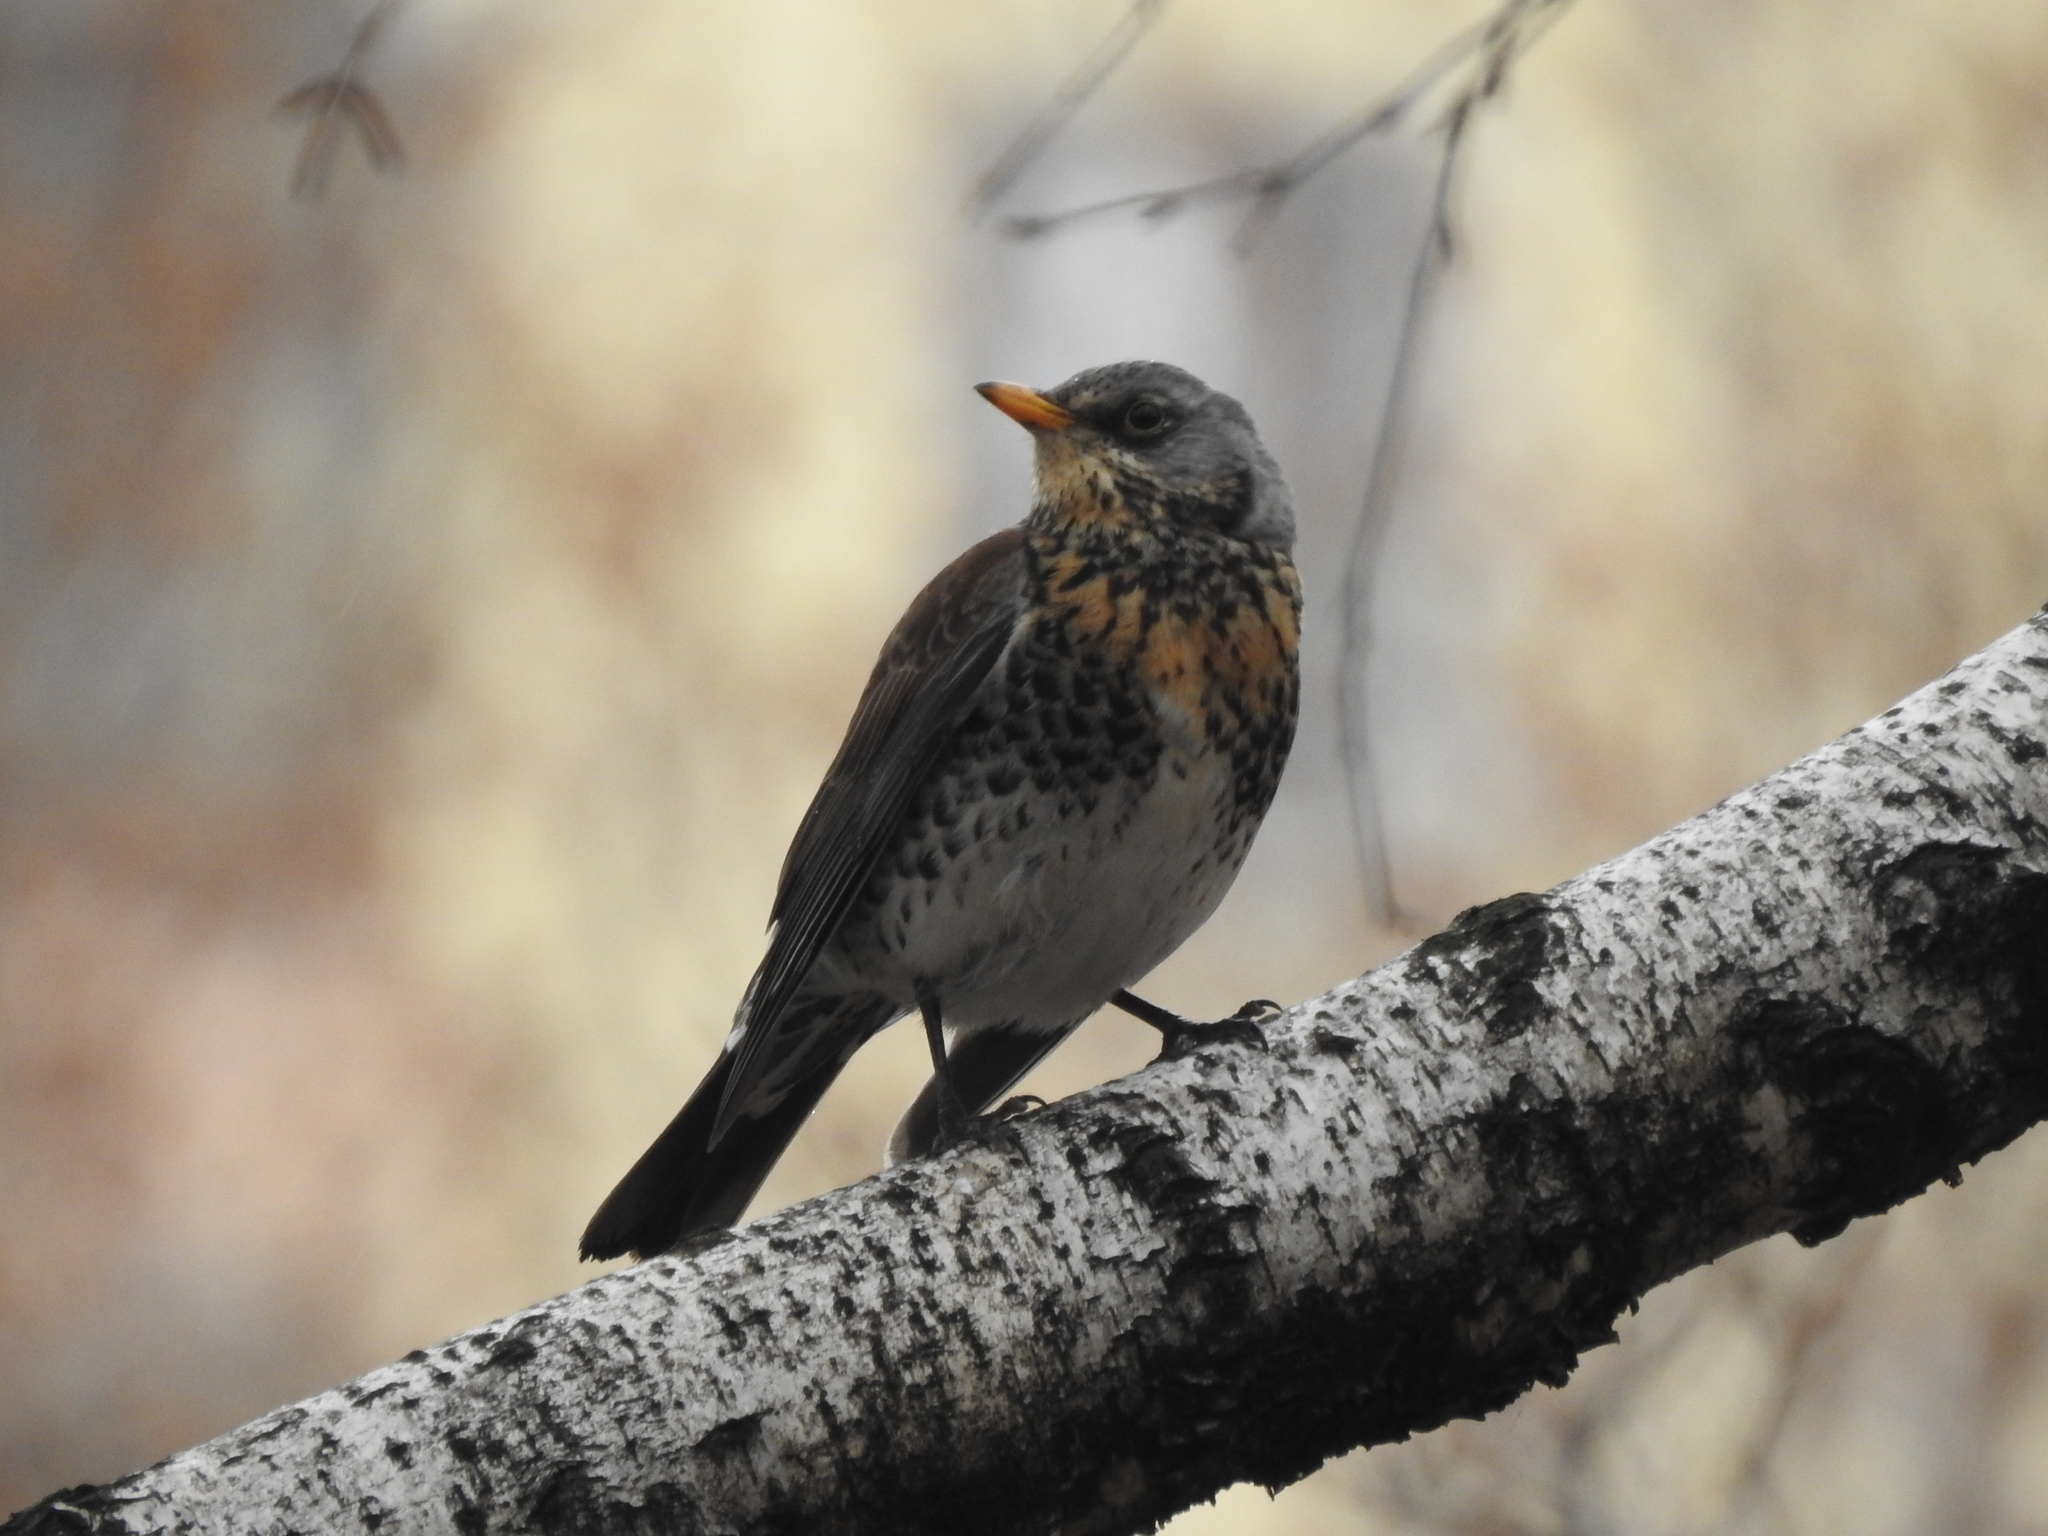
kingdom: Animalia
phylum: Chordata
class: Aves
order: Passeriformes
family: Turdidae
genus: Turdus
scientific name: Turdus pilaris
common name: Fieldfare
